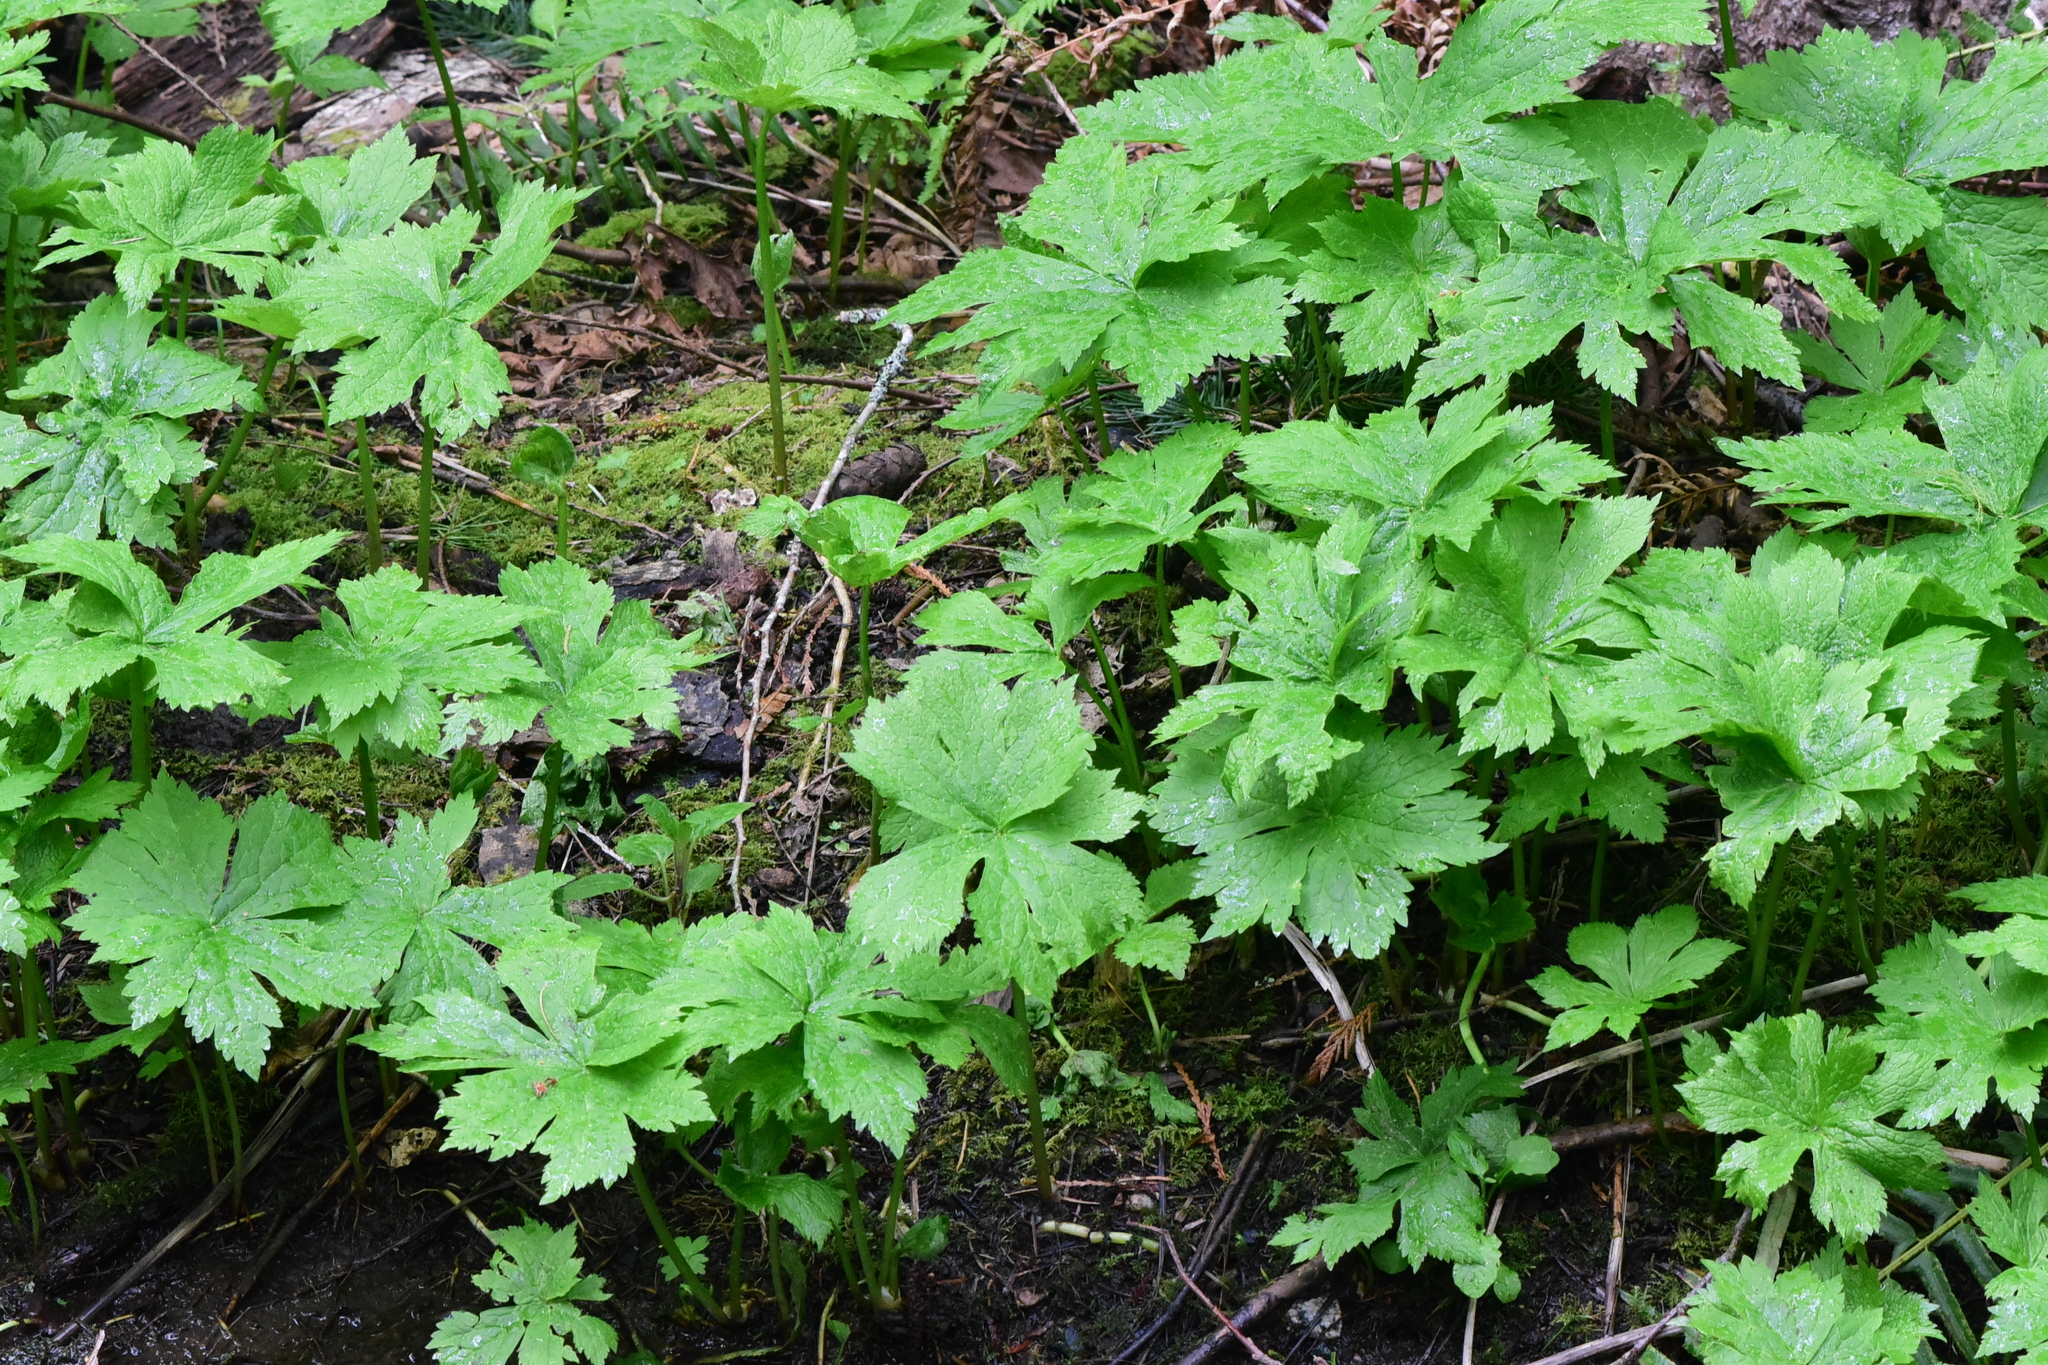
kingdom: Plantae
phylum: Tracheophyta
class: Magnoliopsida
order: Ranunculales
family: Ranunculaceae
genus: Trautvetteria
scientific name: Trautvetteria carolinensis
